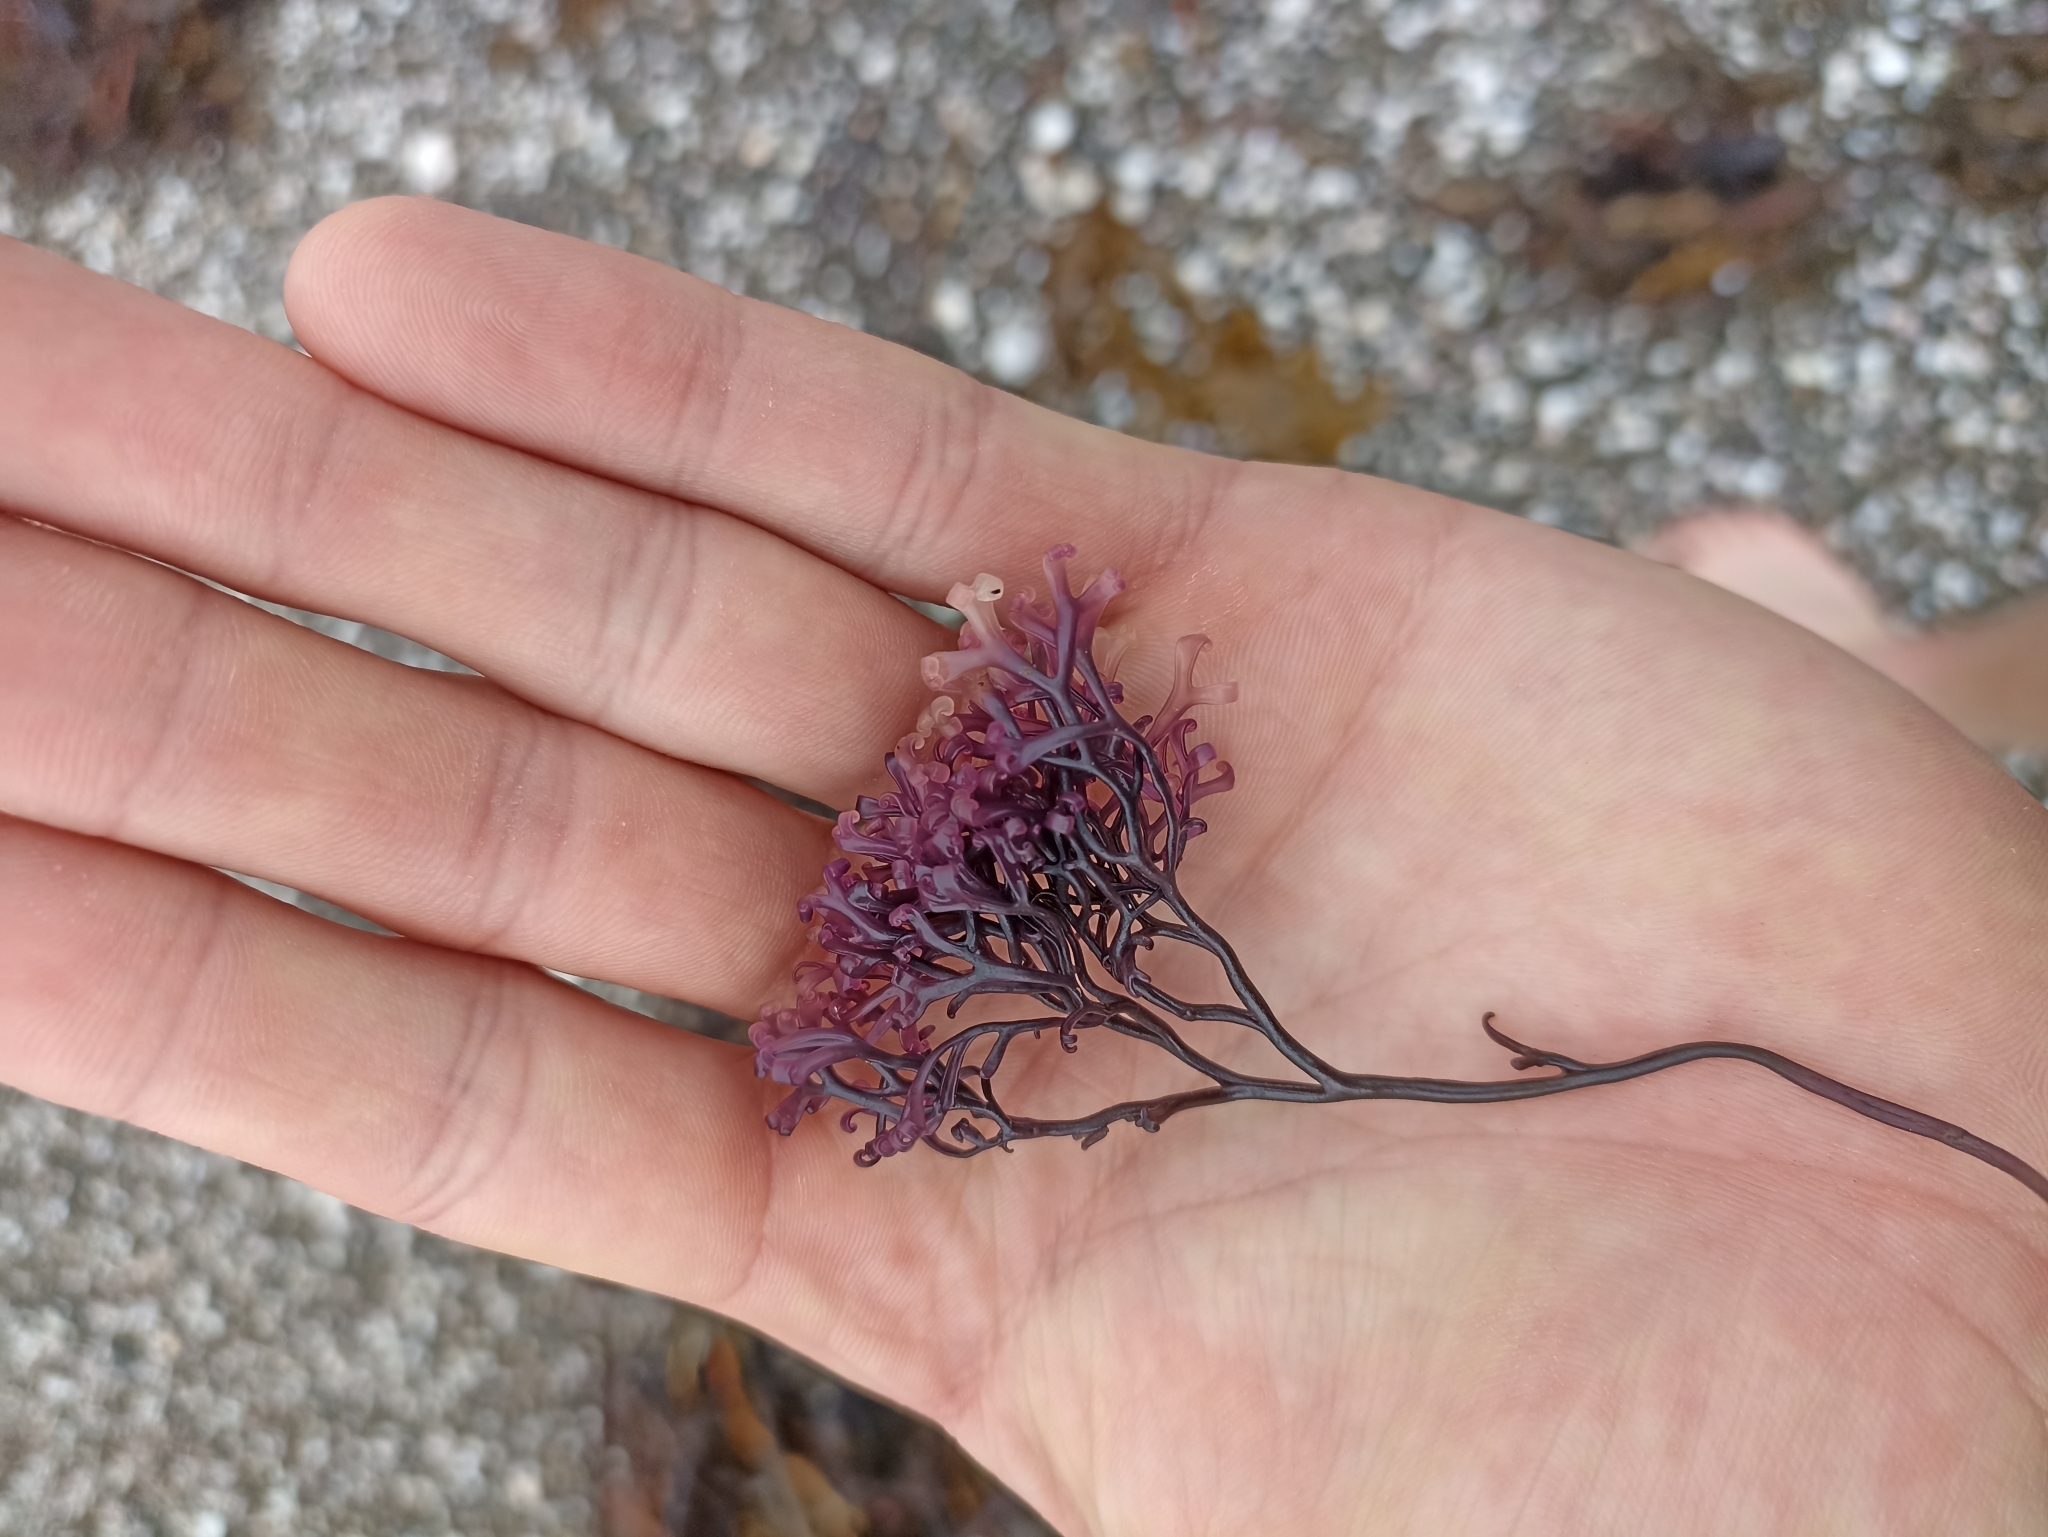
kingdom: Plantae
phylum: Rhodophyta
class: Florideophyceae
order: Gigartinales
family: Gigartinaceae
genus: Psilophycus
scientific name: Psilophycus alveatus
